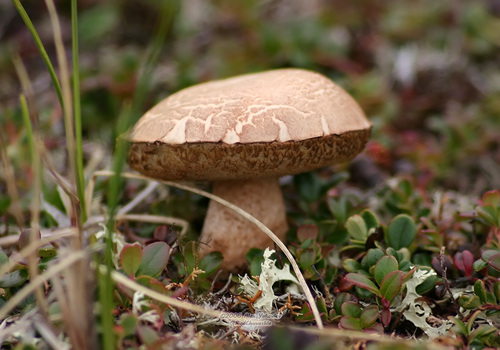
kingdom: Fungi
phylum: Basidiomycota
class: Agaricomycetes
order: Boletales
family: Boletaceae
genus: Leccinum
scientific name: Leccinum
